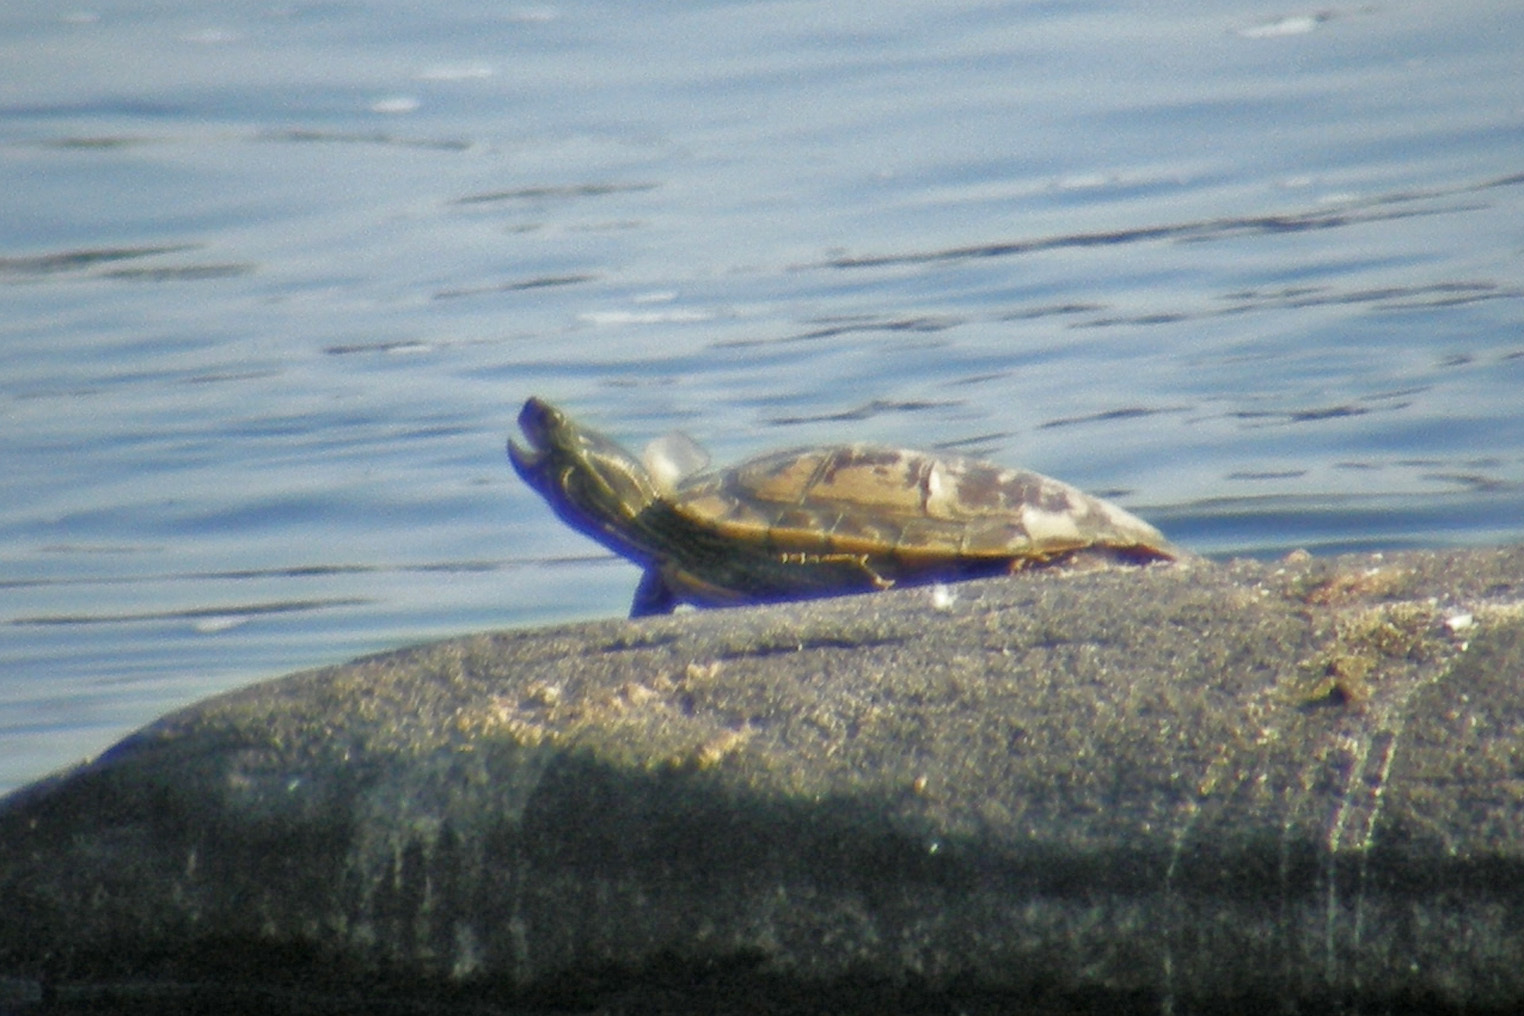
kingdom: Animalia
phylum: Chordata
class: Testudines
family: Emydidae
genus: Graptemys
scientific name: Graptemys geographica
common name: Common map turtle
